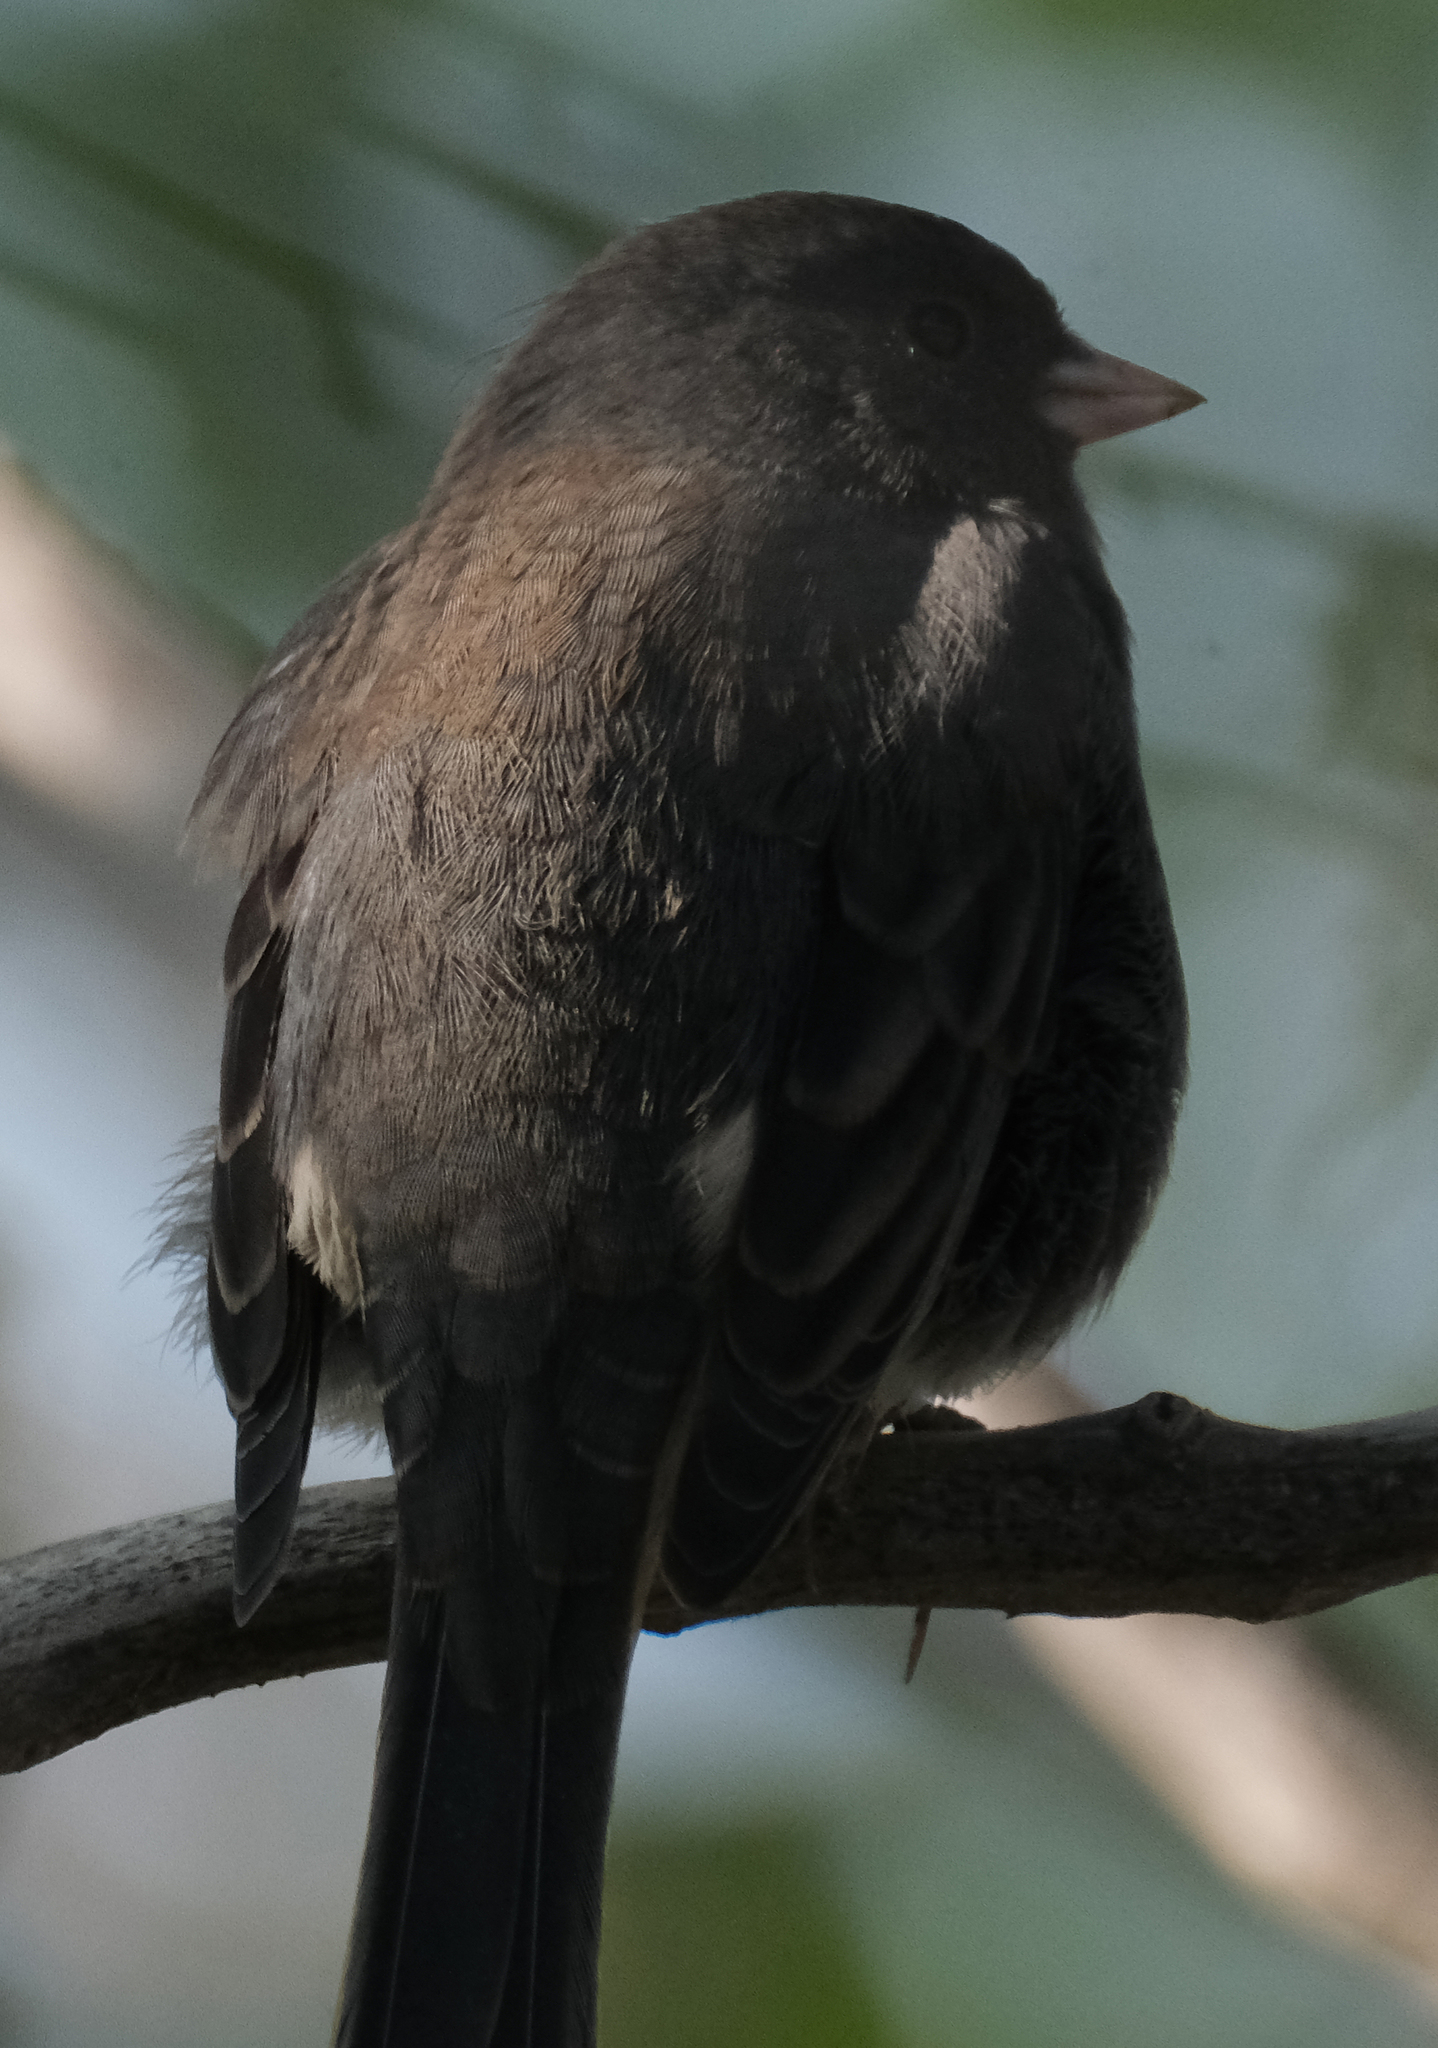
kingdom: Animalia
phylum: Chordata
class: Aves
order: Passeriformes
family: Passerellidae
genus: Junco
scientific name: Junco hyemalis
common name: Dark-eyed junco
